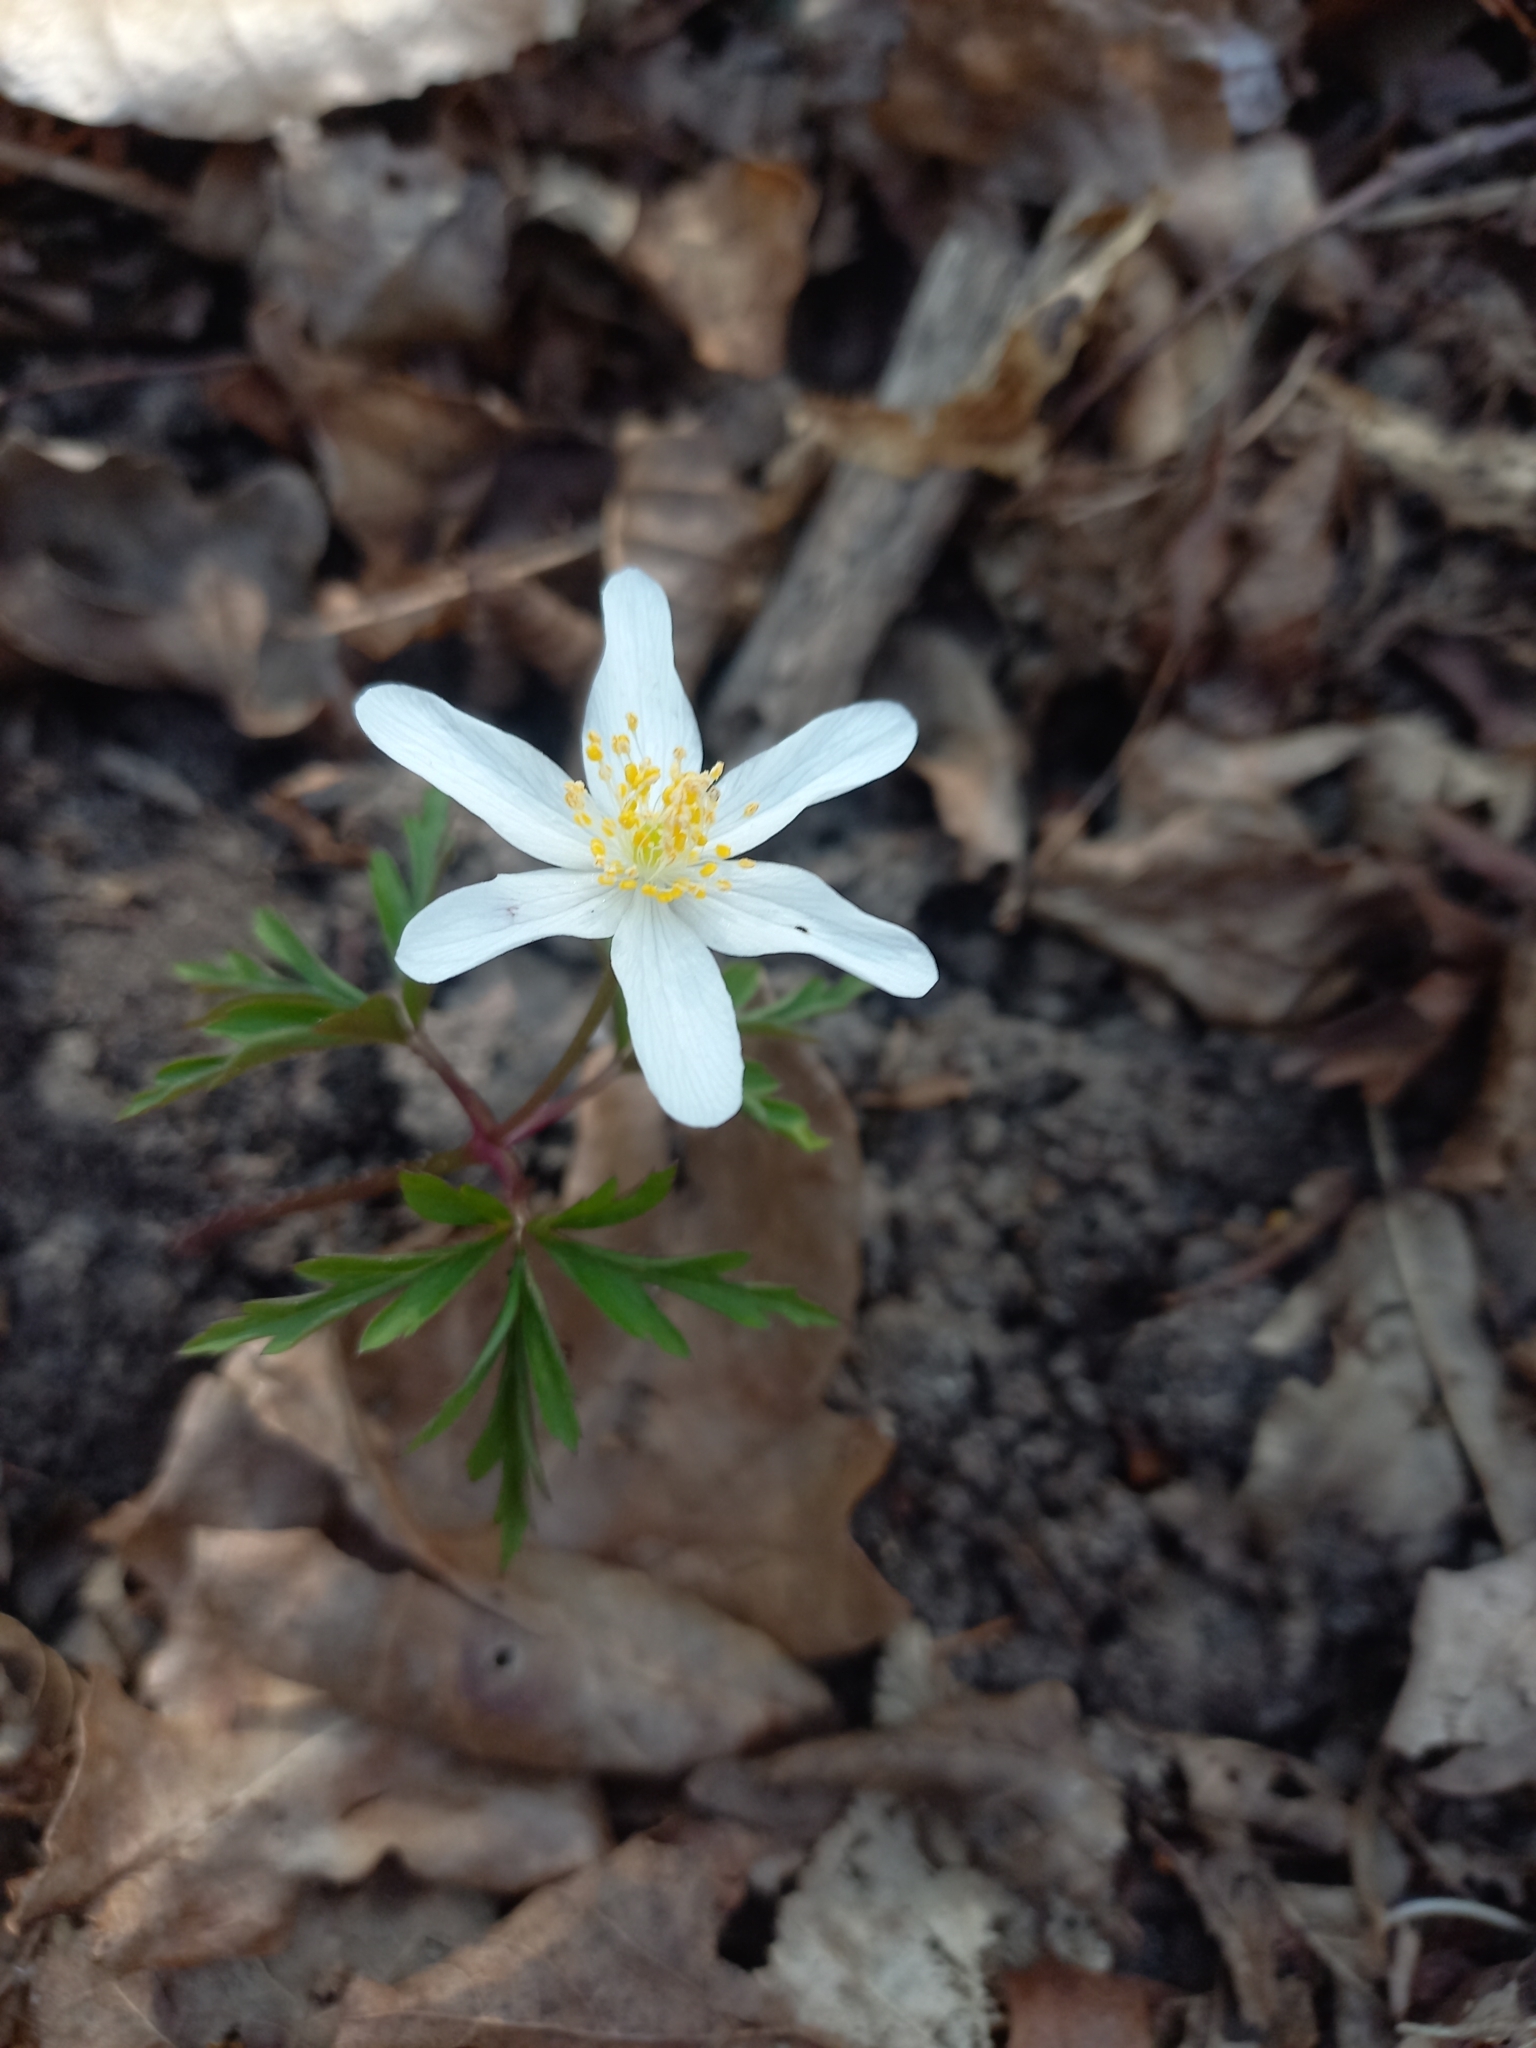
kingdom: Plantae
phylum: Tracheophyta
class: Magnoliopsida
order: Ranunculales
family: Ranunculaceae
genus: Anemone
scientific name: Anemone nemorosa
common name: Wood anemone
